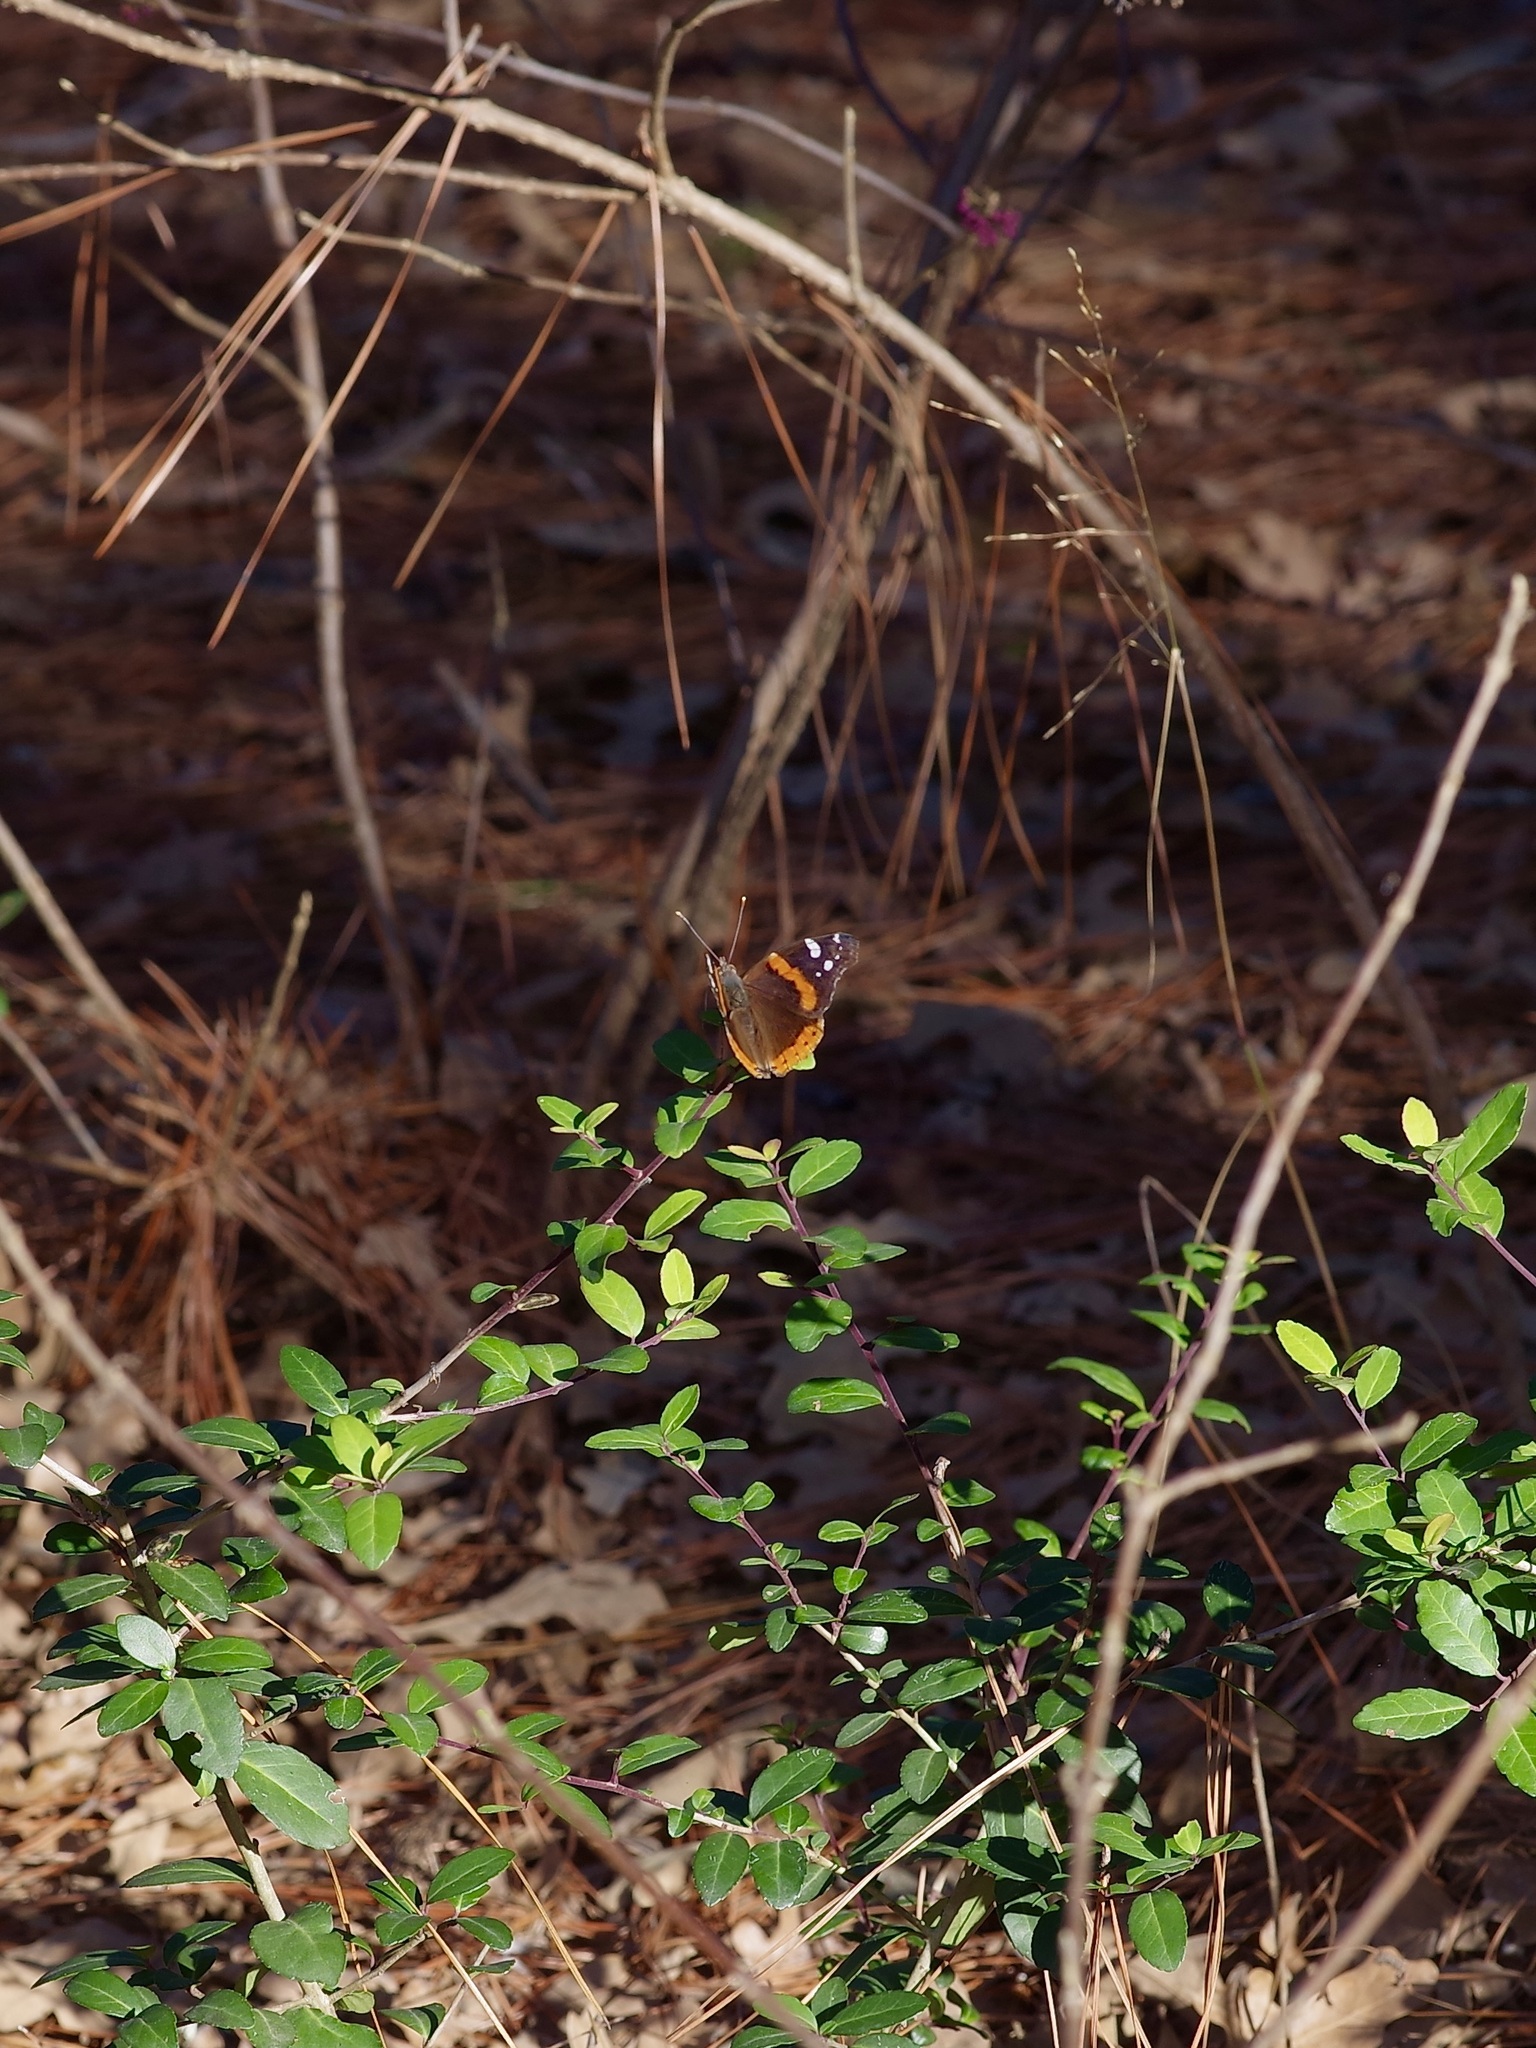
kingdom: Animalia
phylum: Arthropoda
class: Insecta
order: Lepidoptera
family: Nymphalidae
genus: Vanessa
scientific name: Vanessa atalanta
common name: Red admiral
